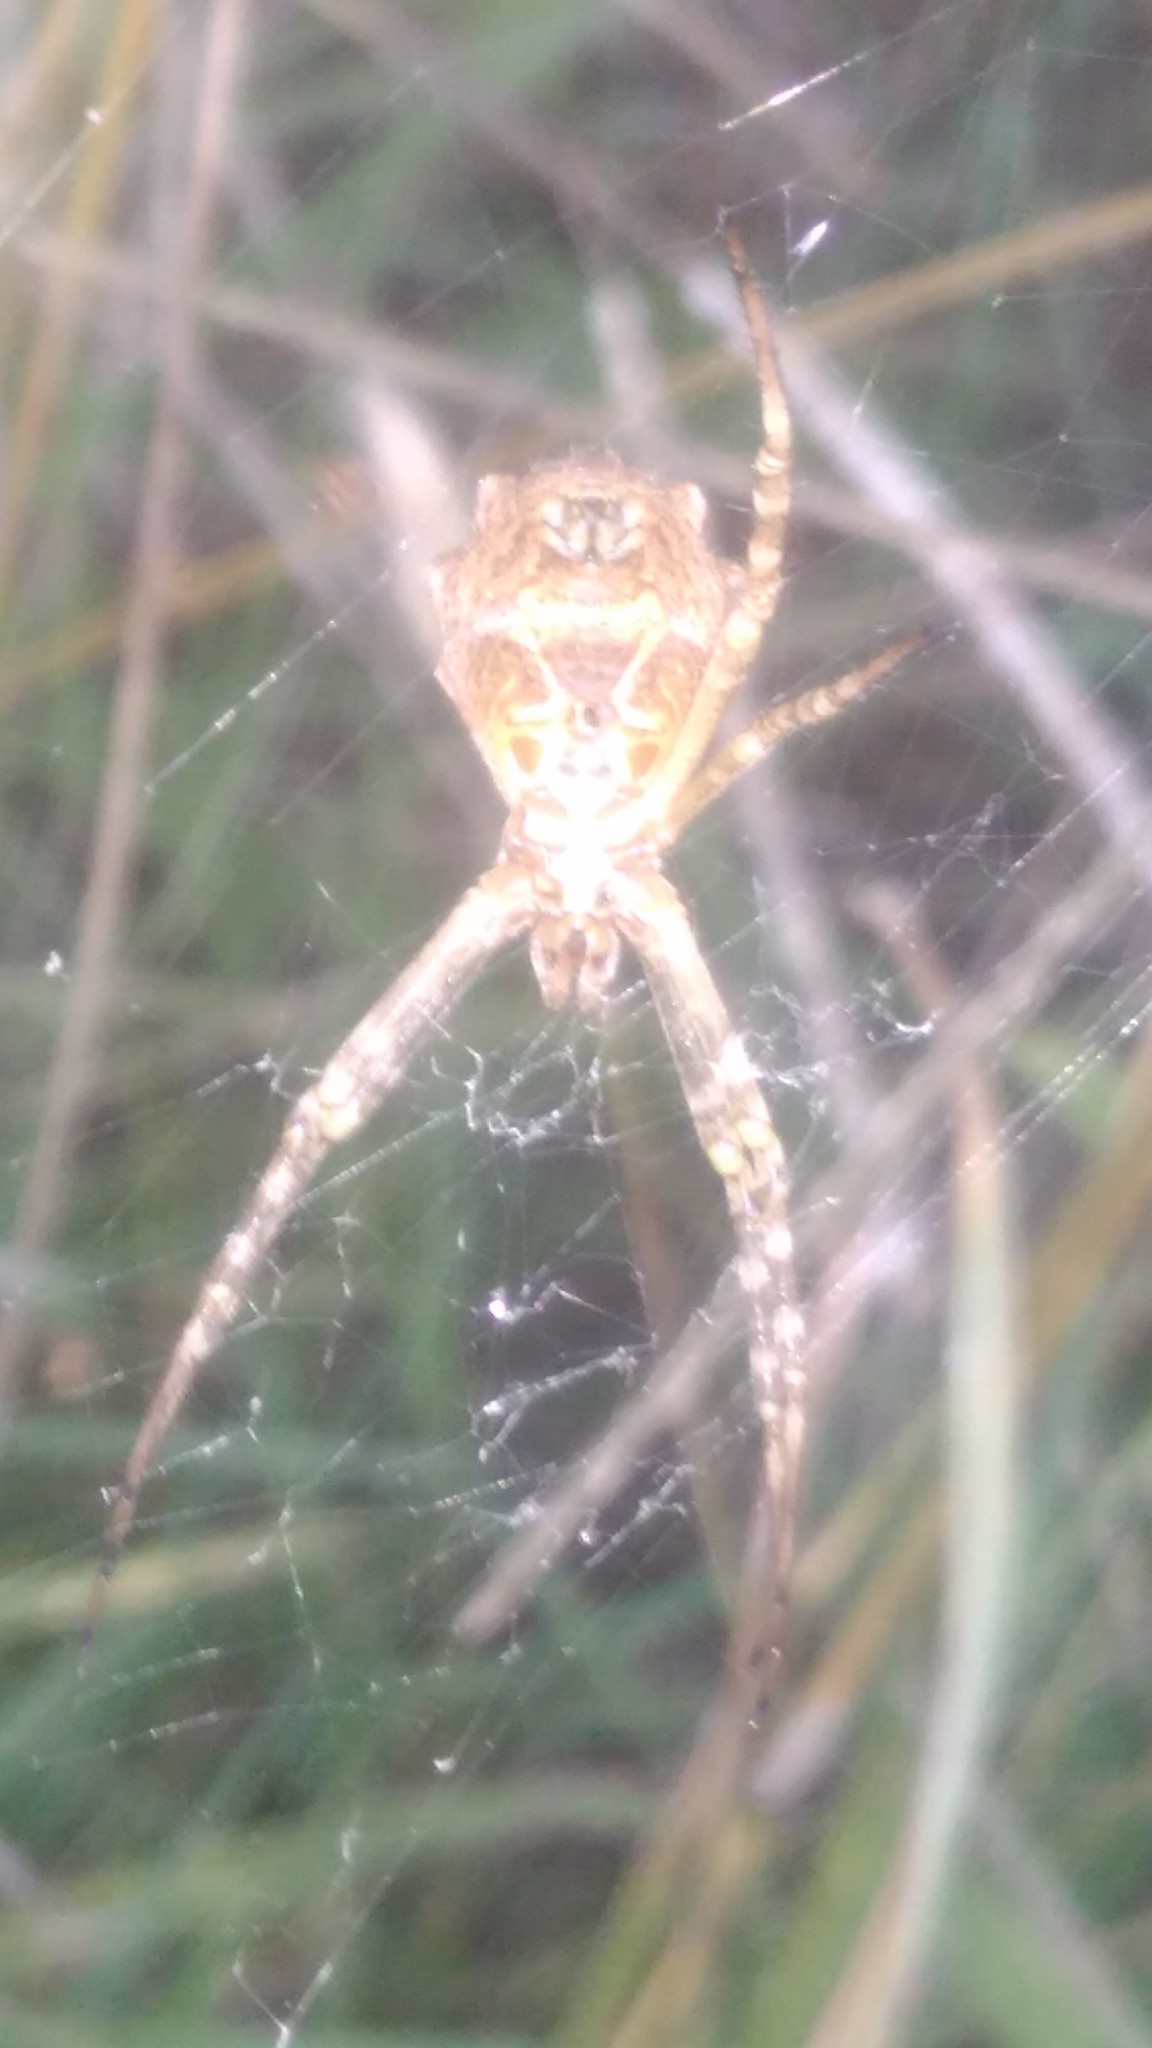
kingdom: Animalia
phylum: Arthropoda
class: Arachnida
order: Araneae
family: Araneidae
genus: Argiope
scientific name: Argiope argentata
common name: Orb weavers
